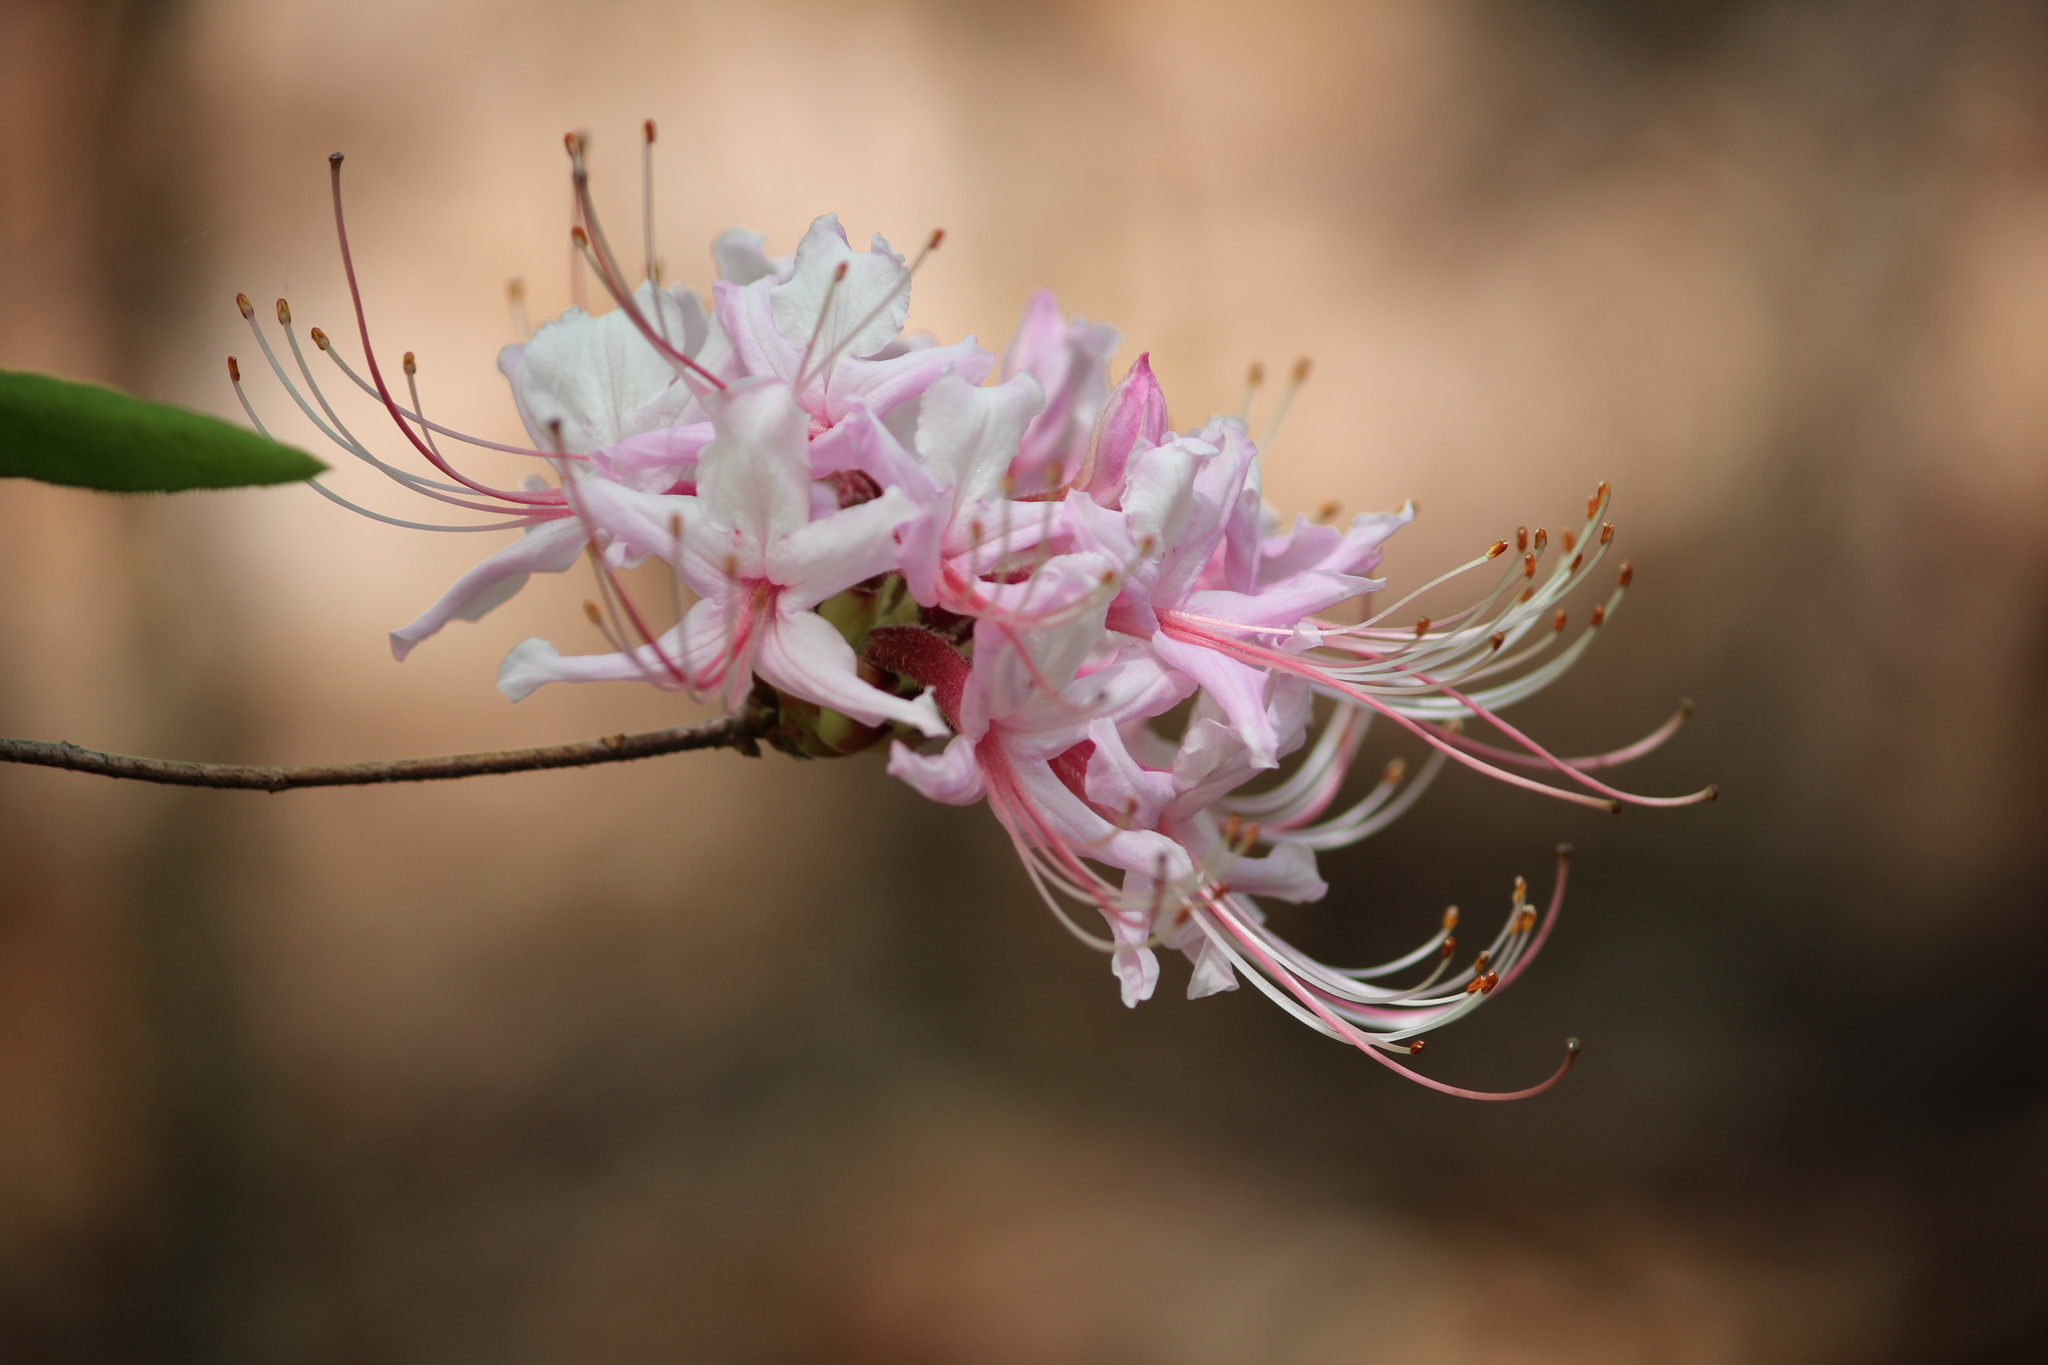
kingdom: Plantae
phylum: Tracheophyta
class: Magnoliopsida
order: Ericales
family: Ericaceae
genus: Rhododendron
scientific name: Rhododendron periclymenoides
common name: Election-pink
